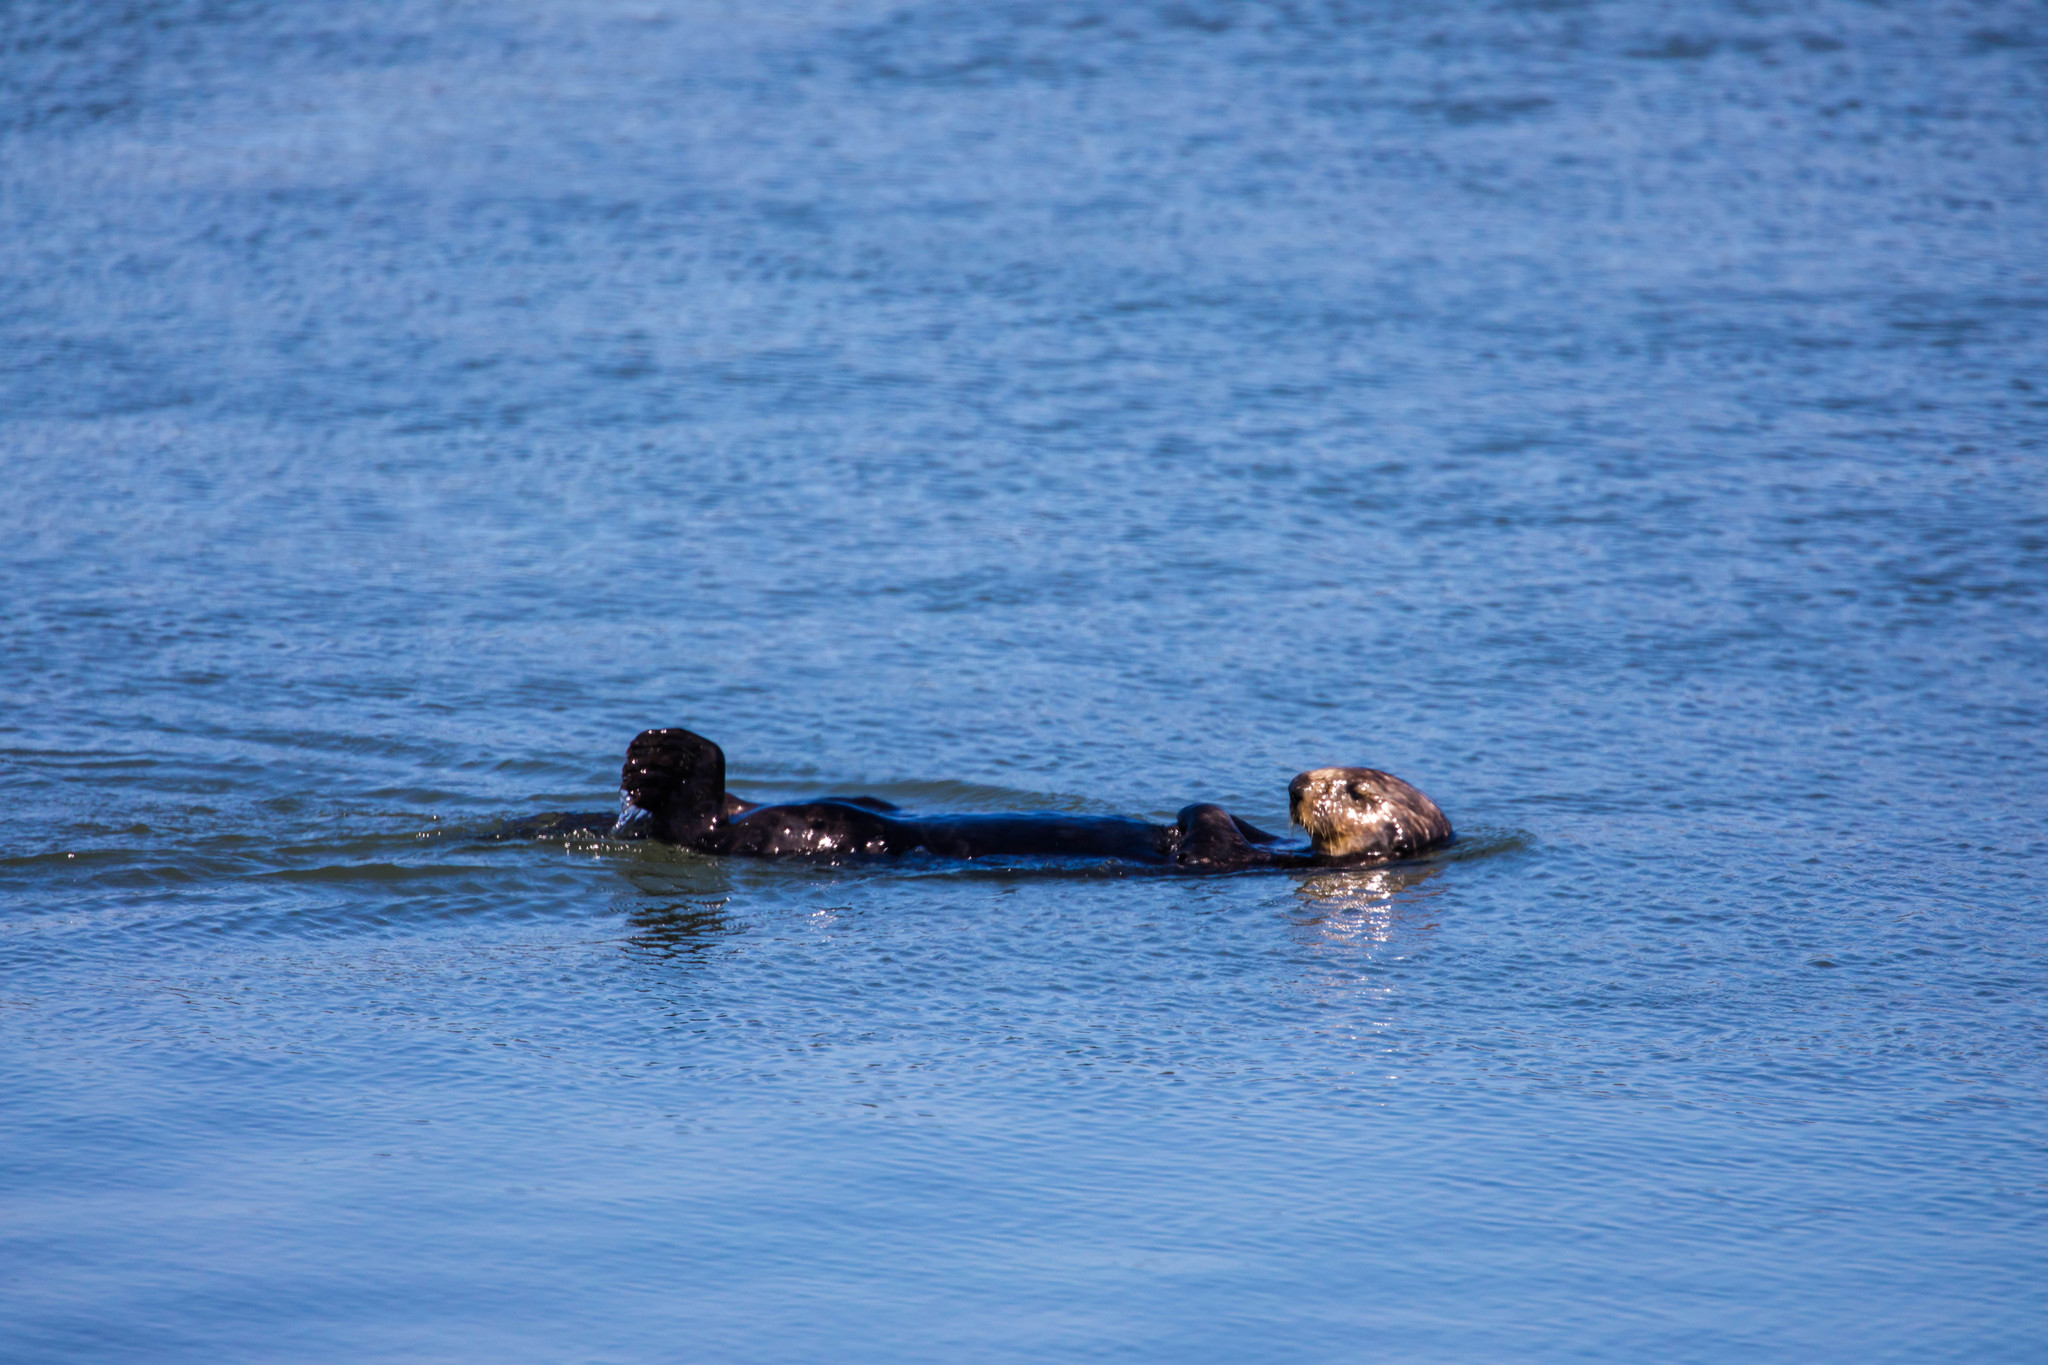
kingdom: Animalia
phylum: Chordata
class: Mammalia
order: Carnivora
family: Mustelidae
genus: Enhydra
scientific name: Enhydra lutris
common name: Sea otter
